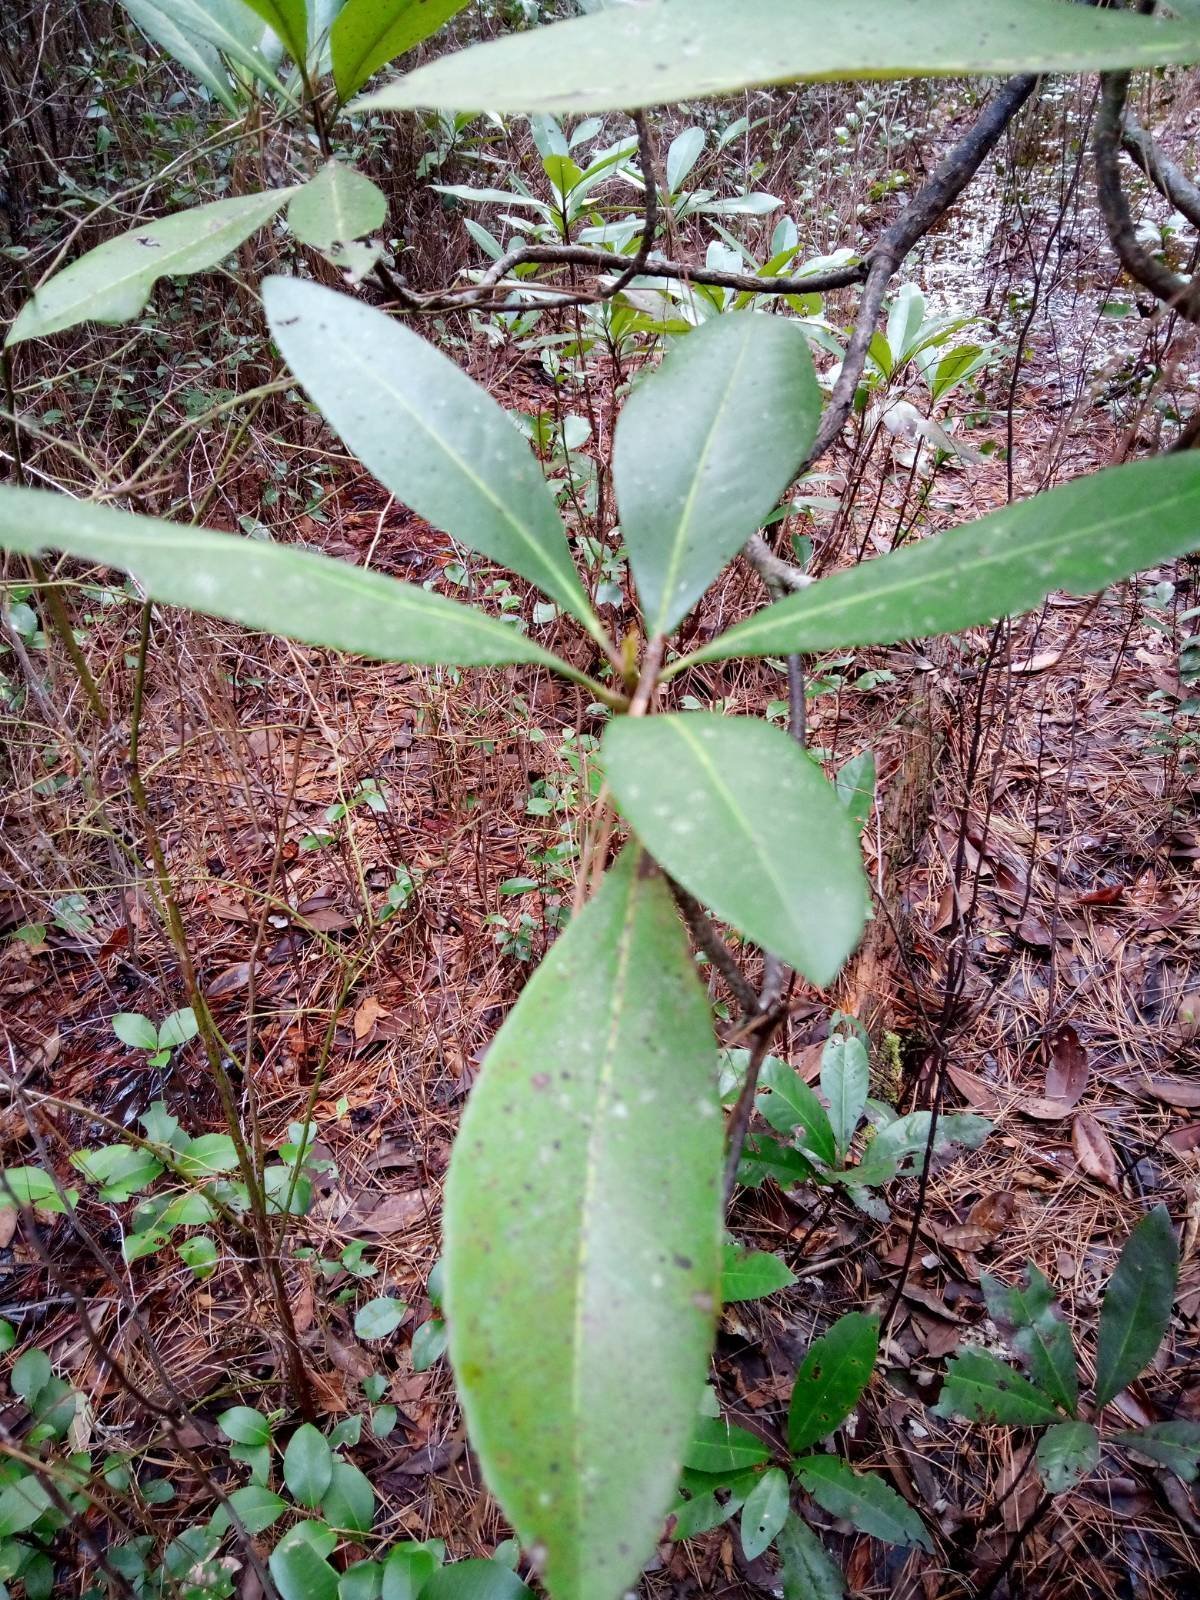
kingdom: Plantae
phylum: Tracheophyta
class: Magnoliopsida
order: Magnoliales
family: Magnoliaceae
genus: Magnolia
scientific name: Magnolia virginiana
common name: Swamp bay
